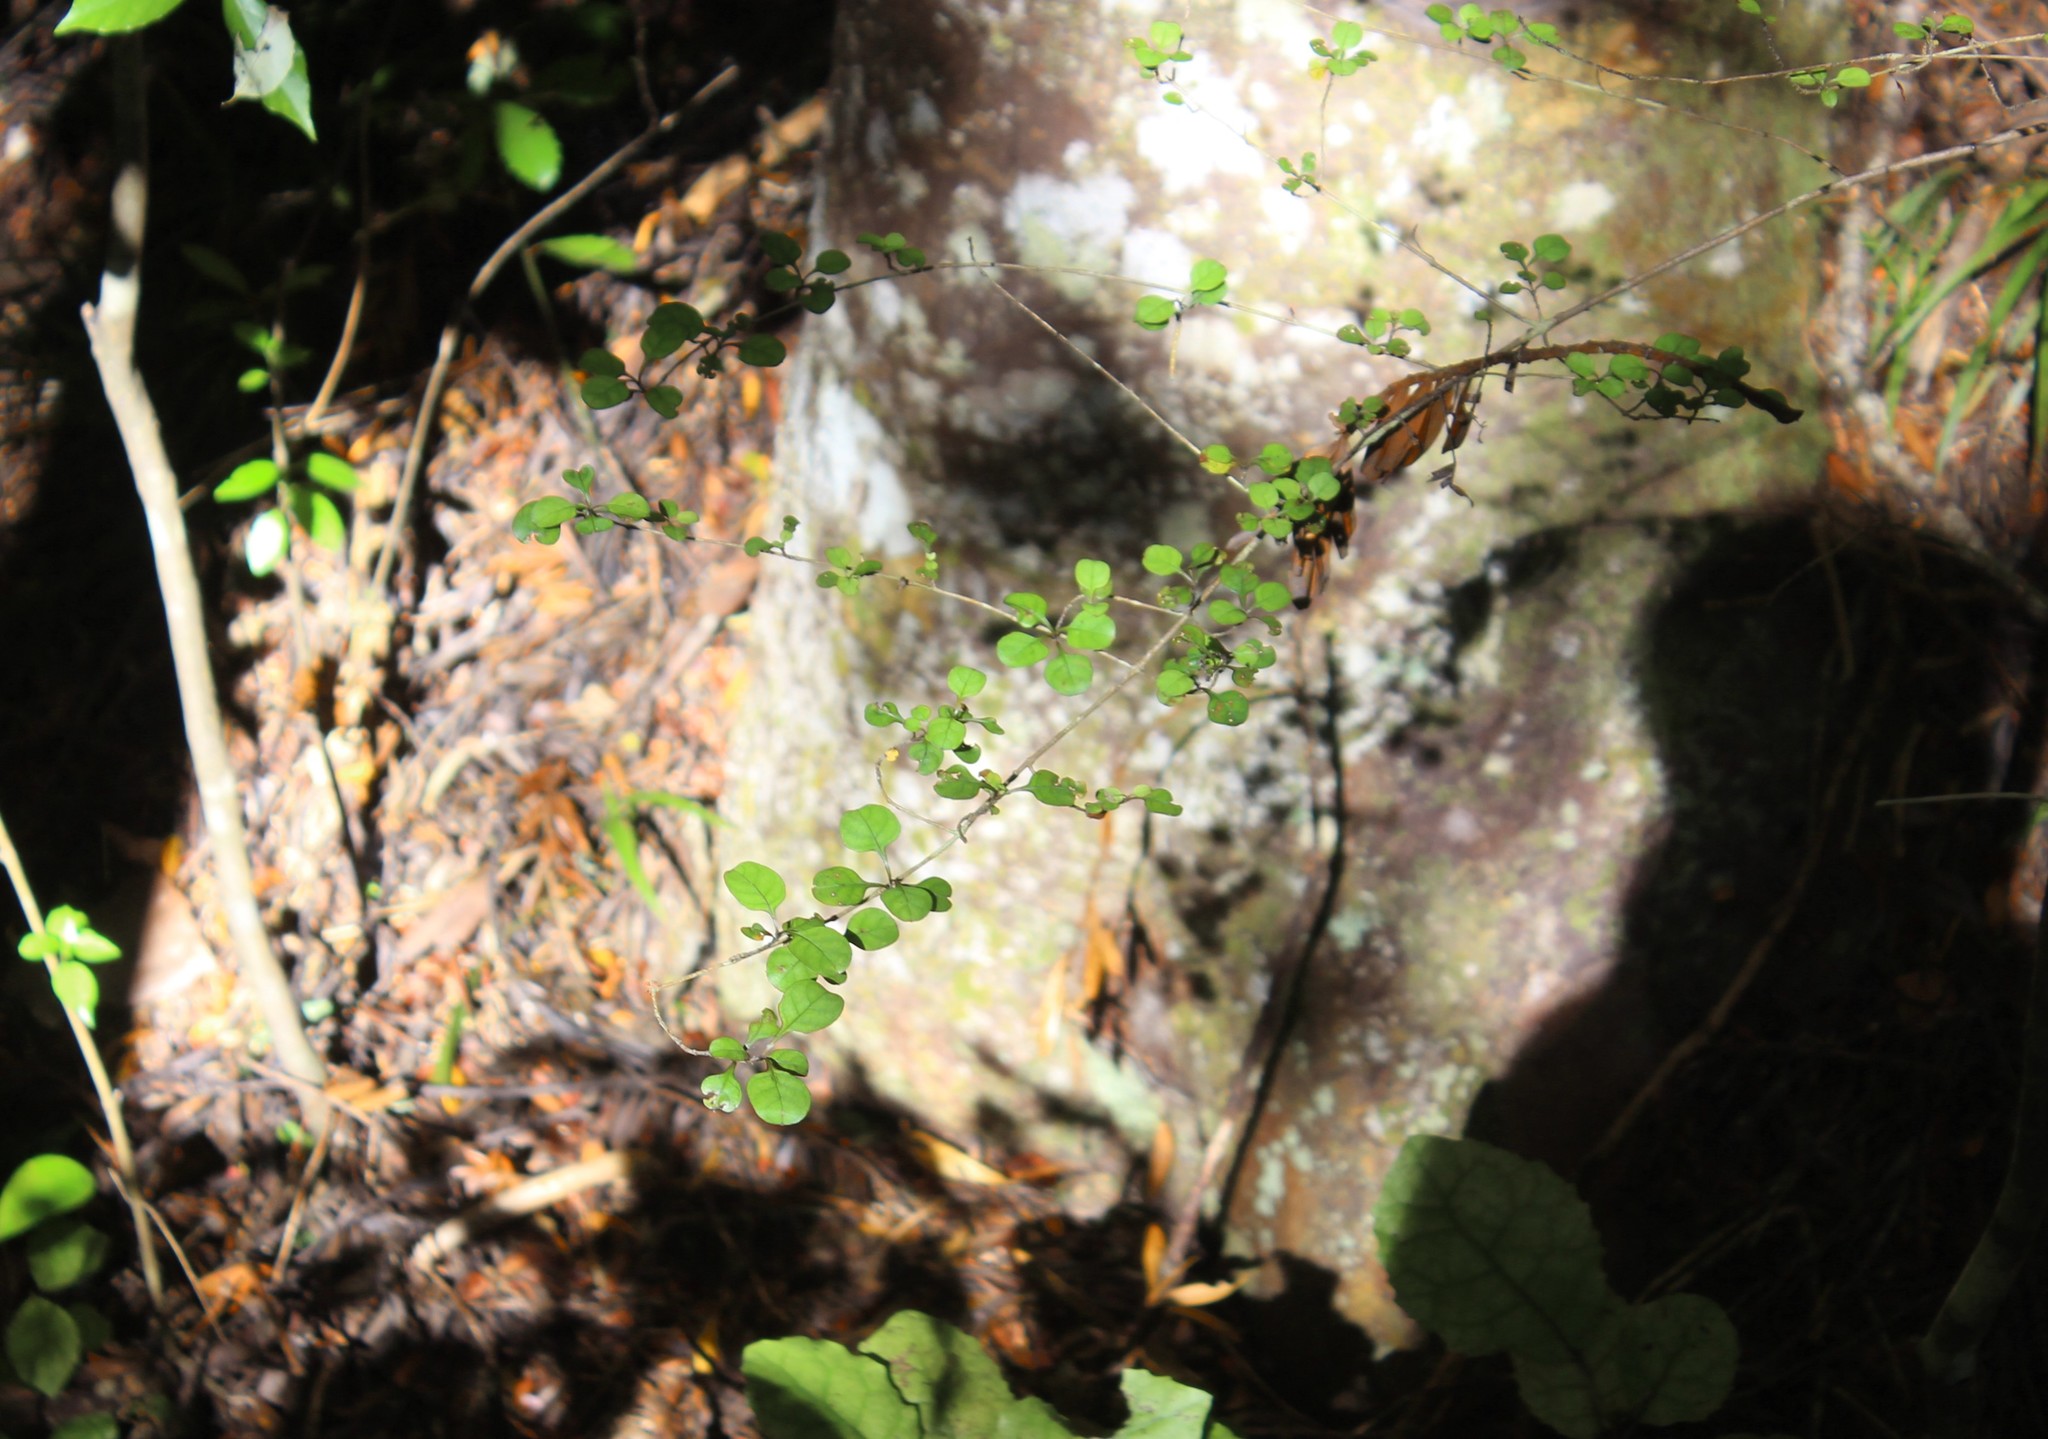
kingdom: Plantae
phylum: Tracheophyta
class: Magnoliopsida
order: Gentianales
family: Rubiaceae
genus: Coprosma
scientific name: Coprosma arborea
